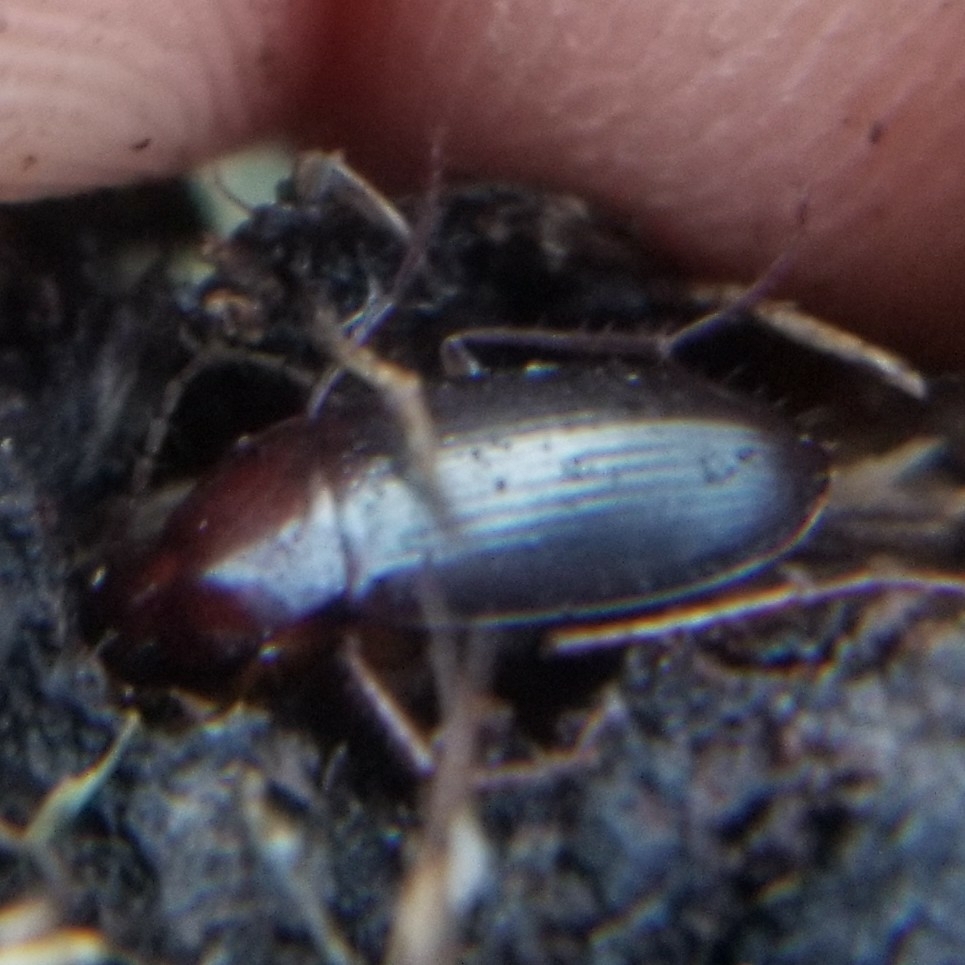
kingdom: Animalia
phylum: Arthropoda
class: Insecta
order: Coleoptera
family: Carabidae
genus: Calathus
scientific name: Calathus ruficollis
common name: Red-collared harp ground beetle
